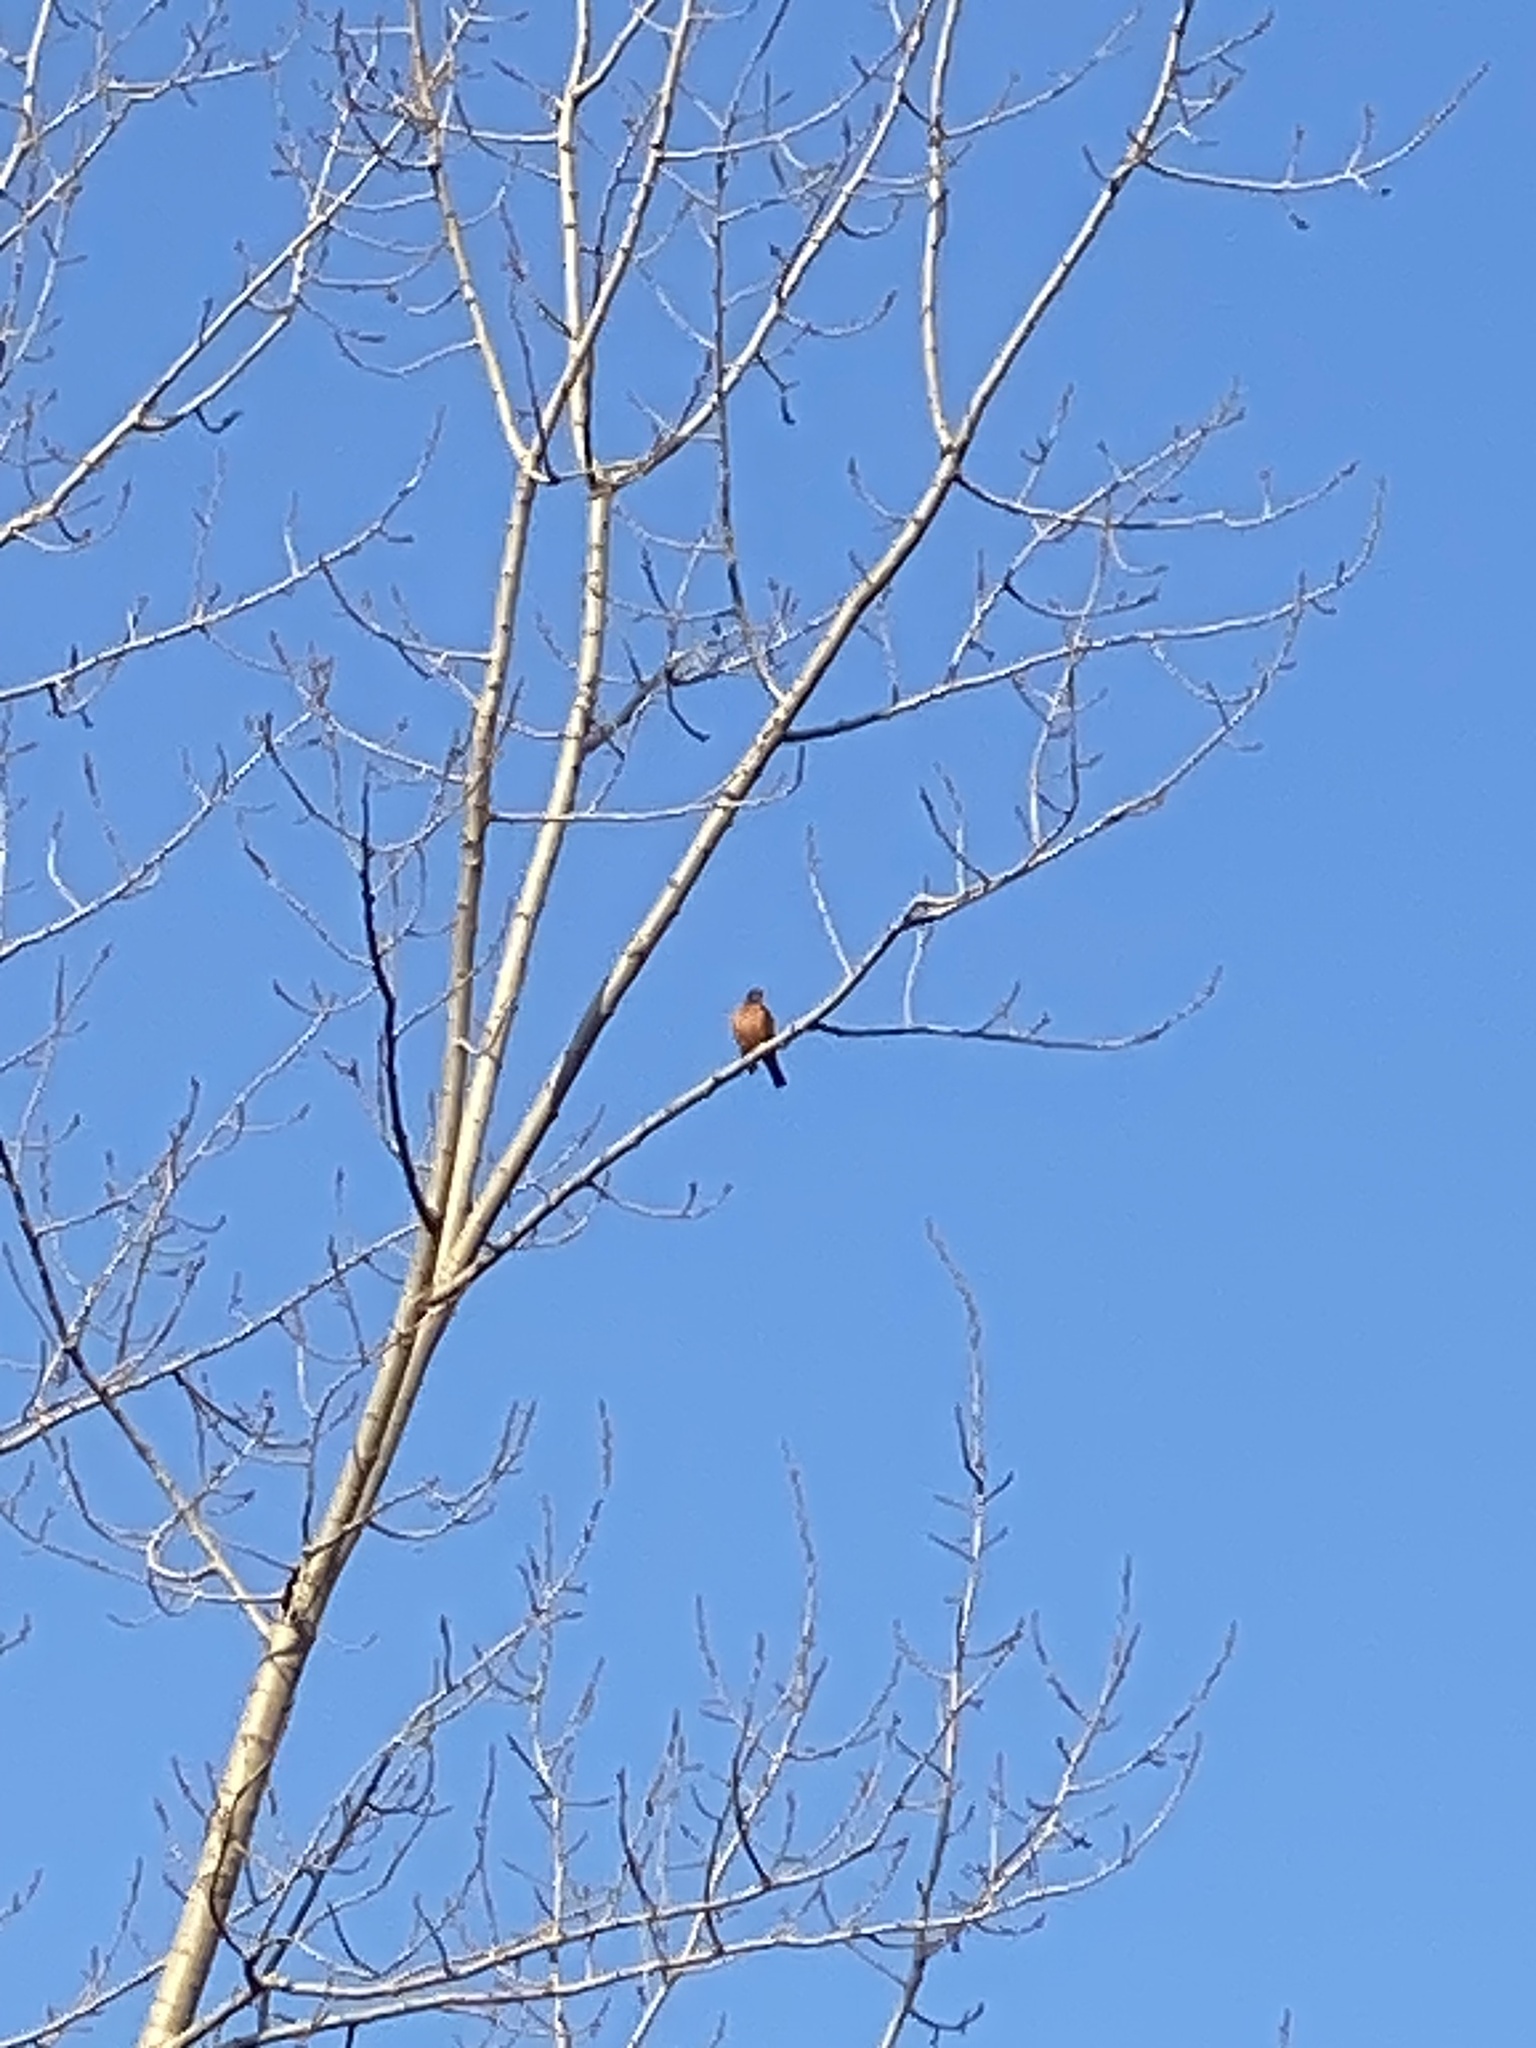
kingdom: Animalia
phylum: Chordata
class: Aves
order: Passeriformes
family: Turdidae
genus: Turdus
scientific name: Turdus migratorius
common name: American robin
